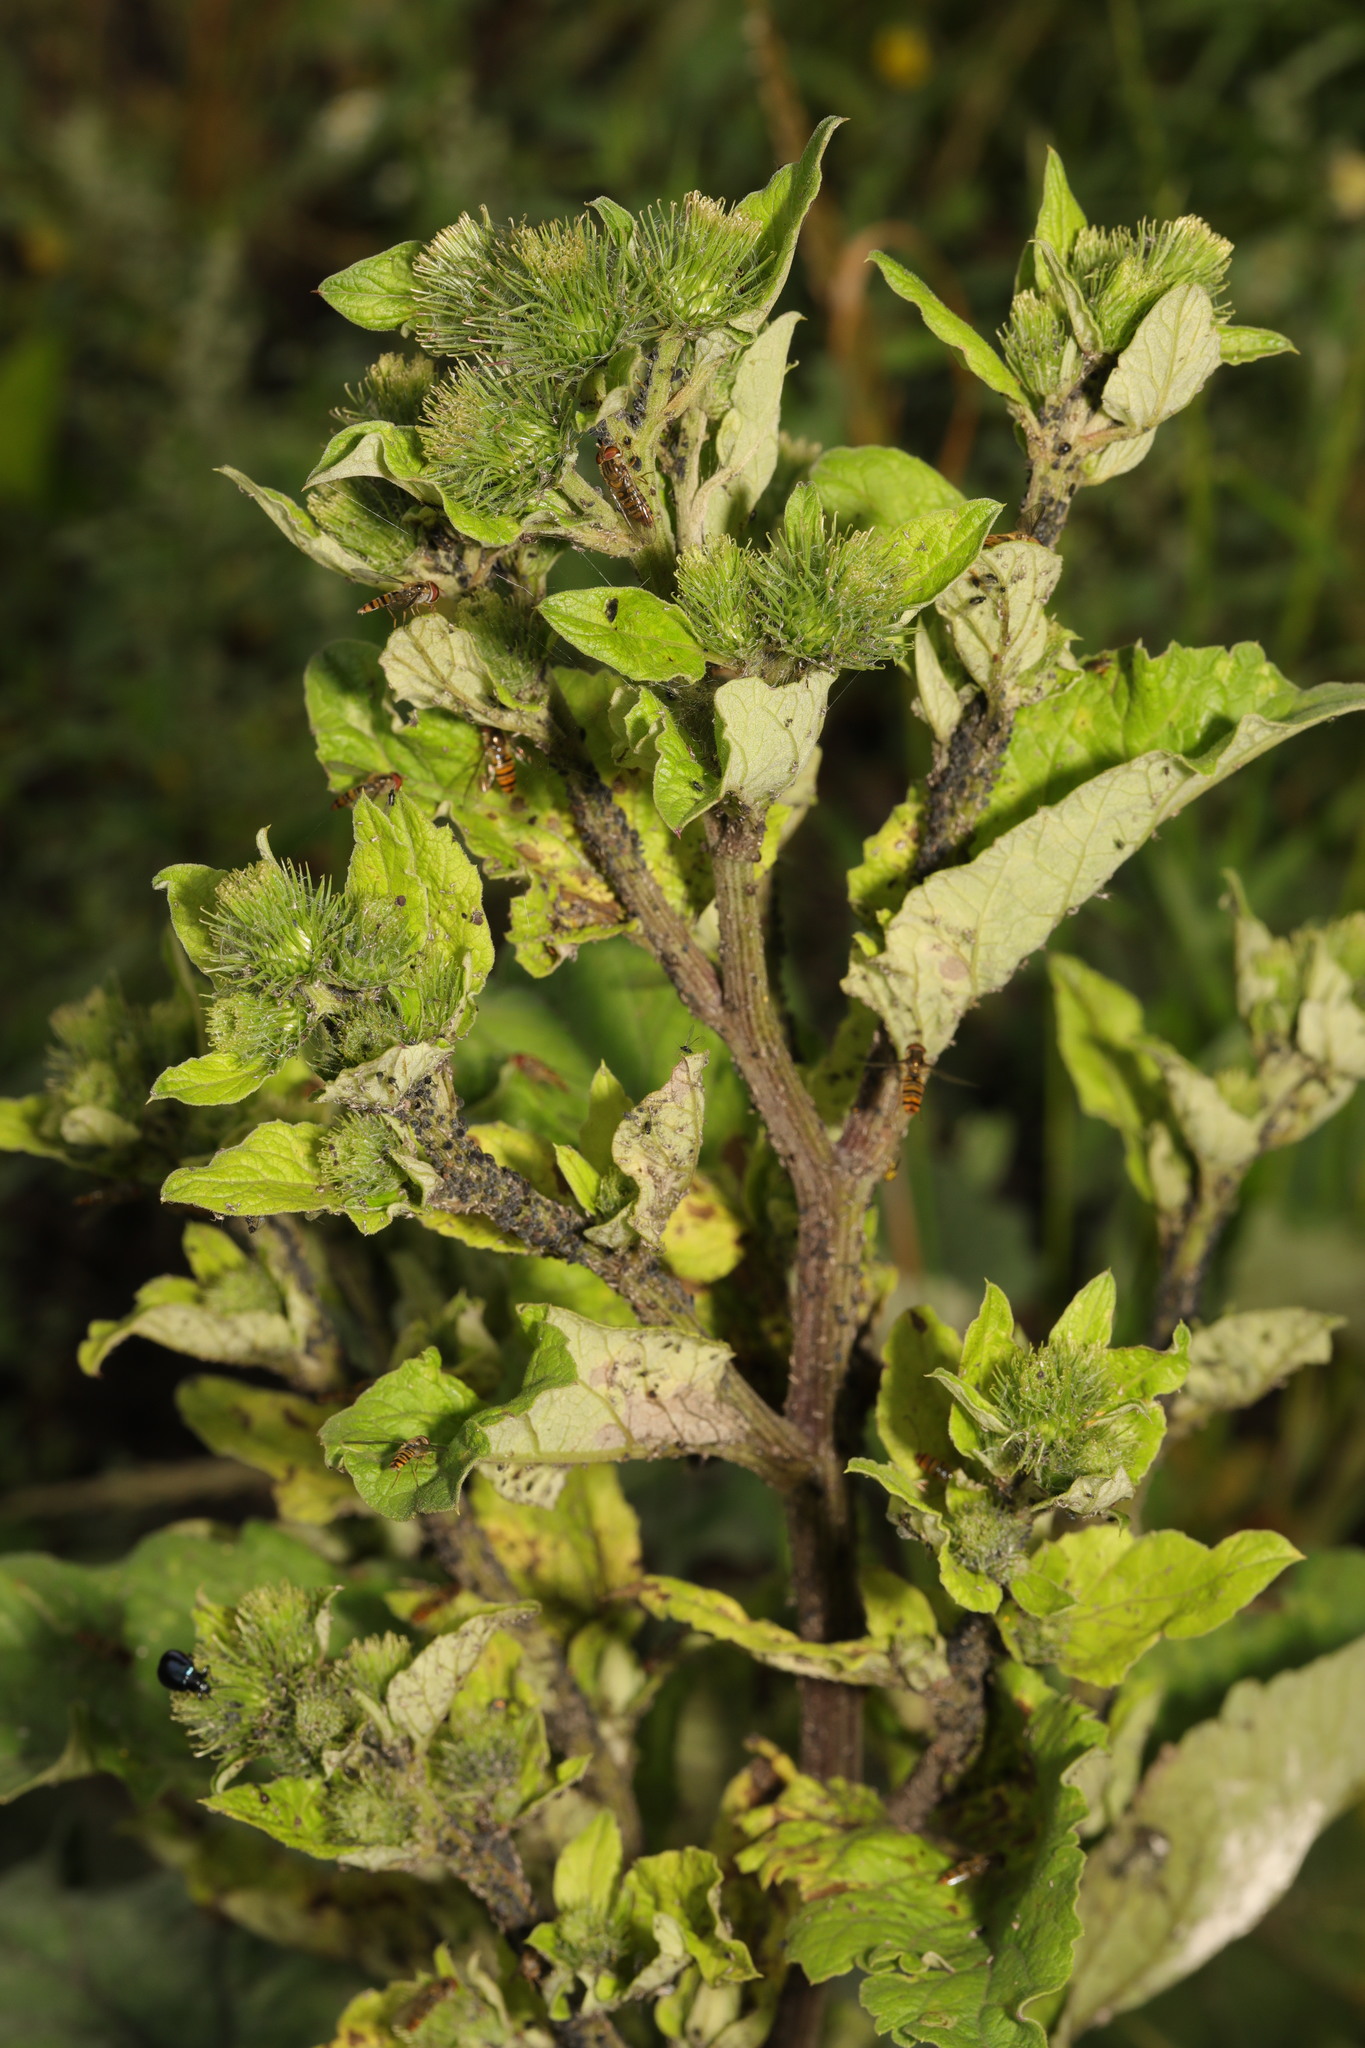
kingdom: Plantae
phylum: Tracheophyta
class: Magnoliopsida
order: Asterales
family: Asteraceae
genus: Arctium
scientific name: Arctium minus
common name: Lesser burdock
